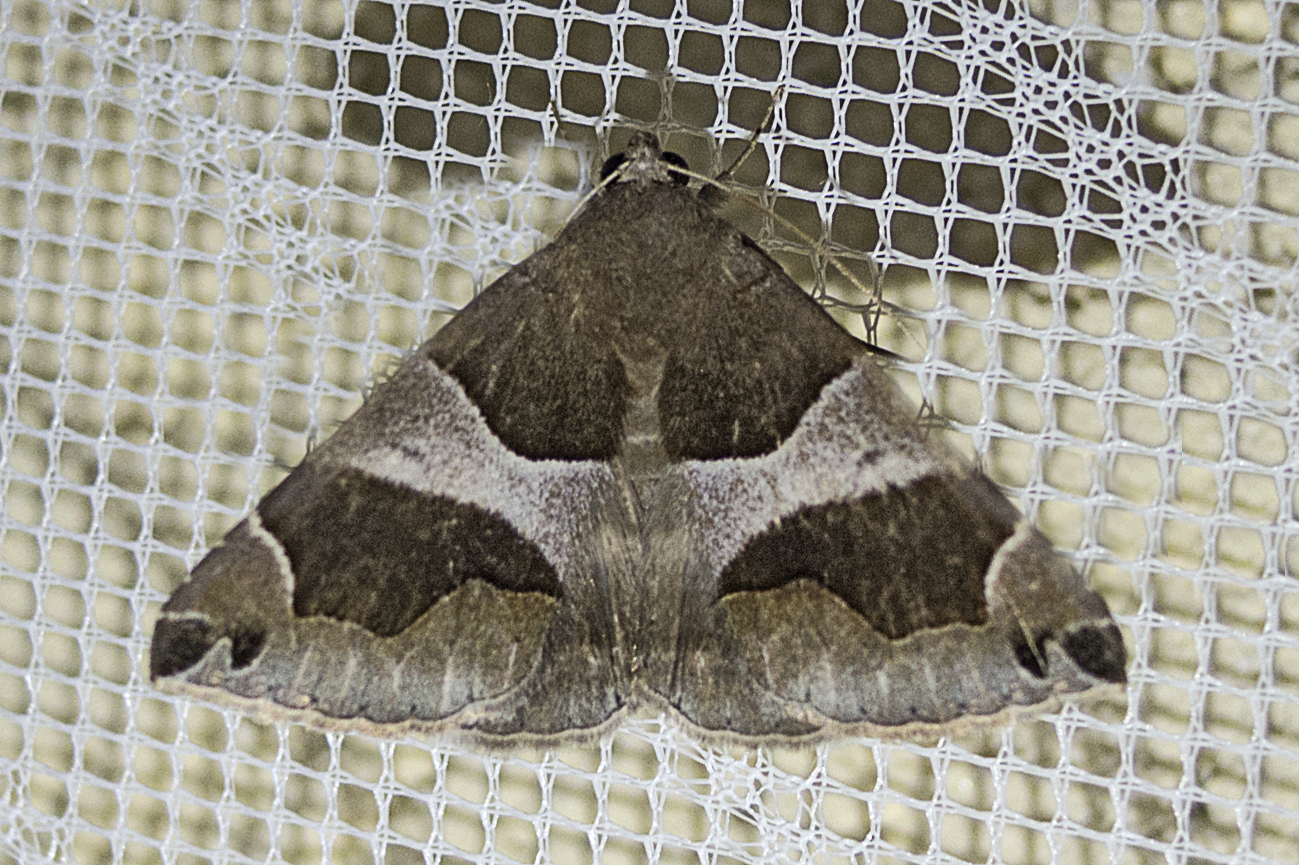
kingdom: Animalia
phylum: Arthropoda
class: Insecta
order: Lepidoptera
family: Erebidae
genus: Dysgonia
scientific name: Dysgonia algira
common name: Passenger
